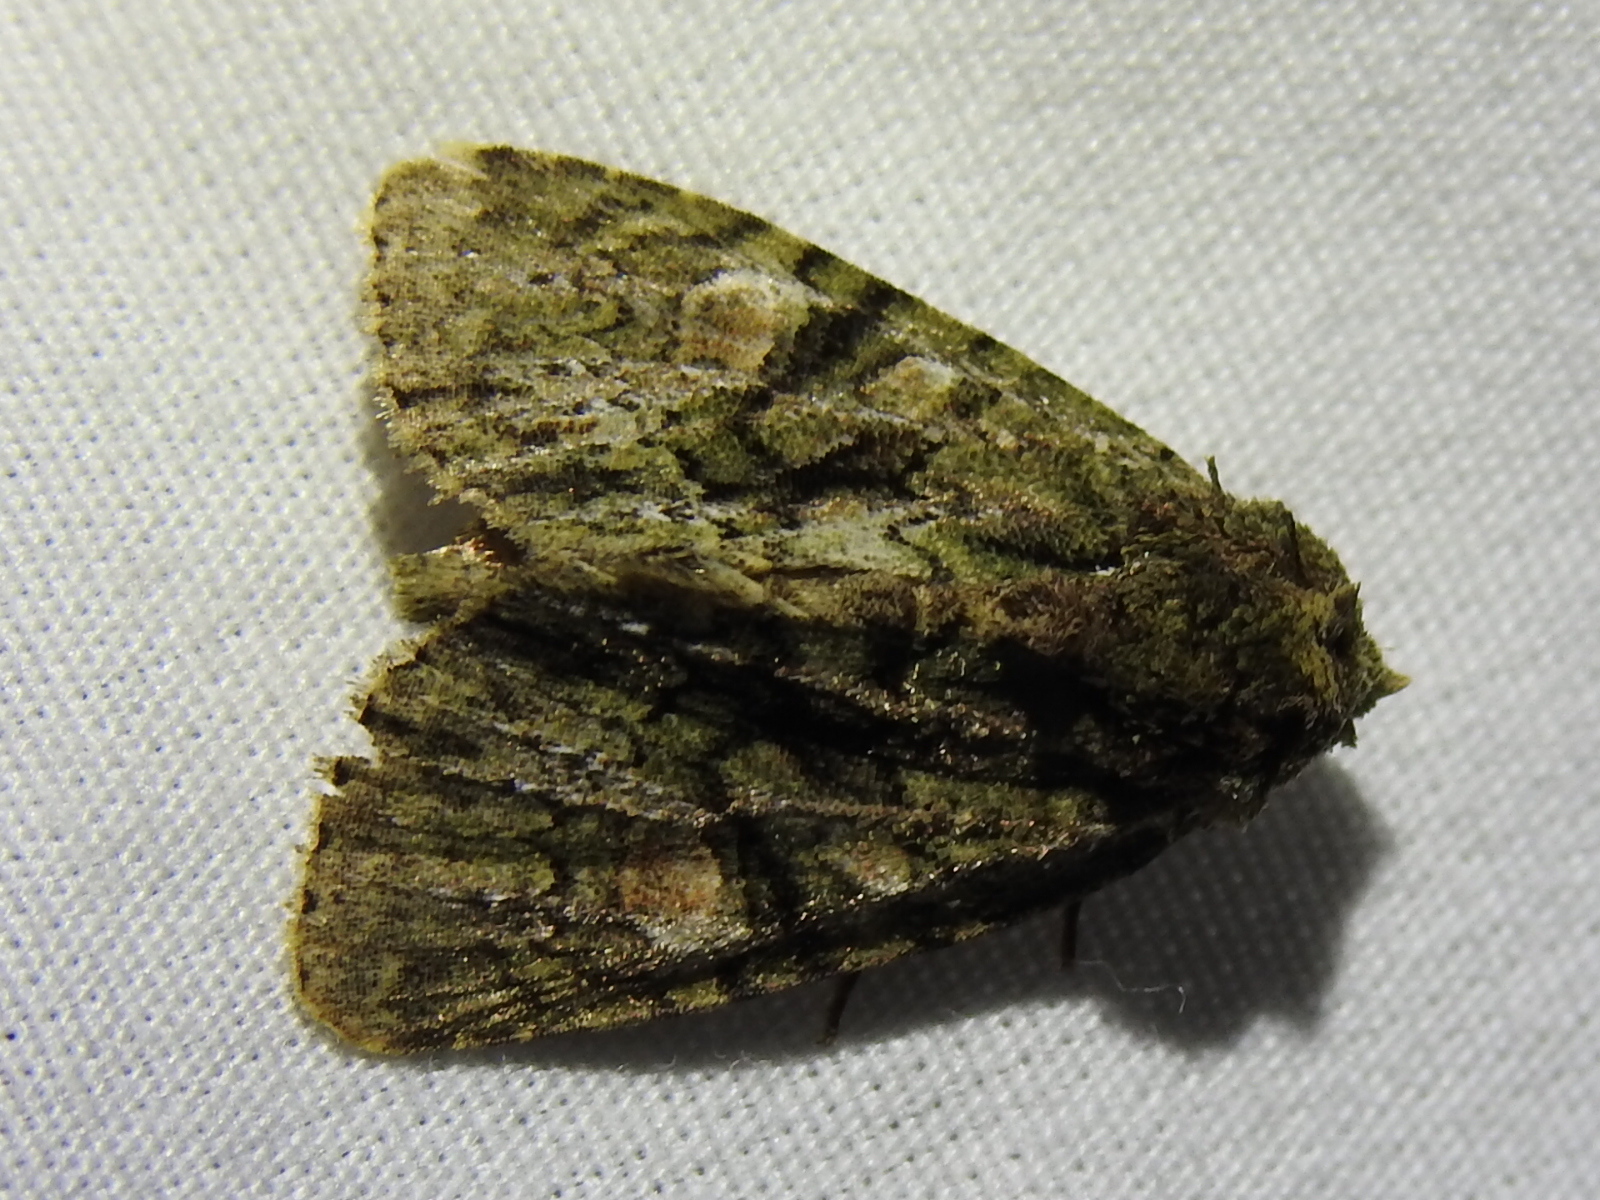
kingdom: Animalia
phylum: Arthropoda
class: Insecta
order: Lepidoptera
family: Noctuidae
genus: Phosphila
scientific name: Phosphila miselioides
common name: Spotted phosphila moth
